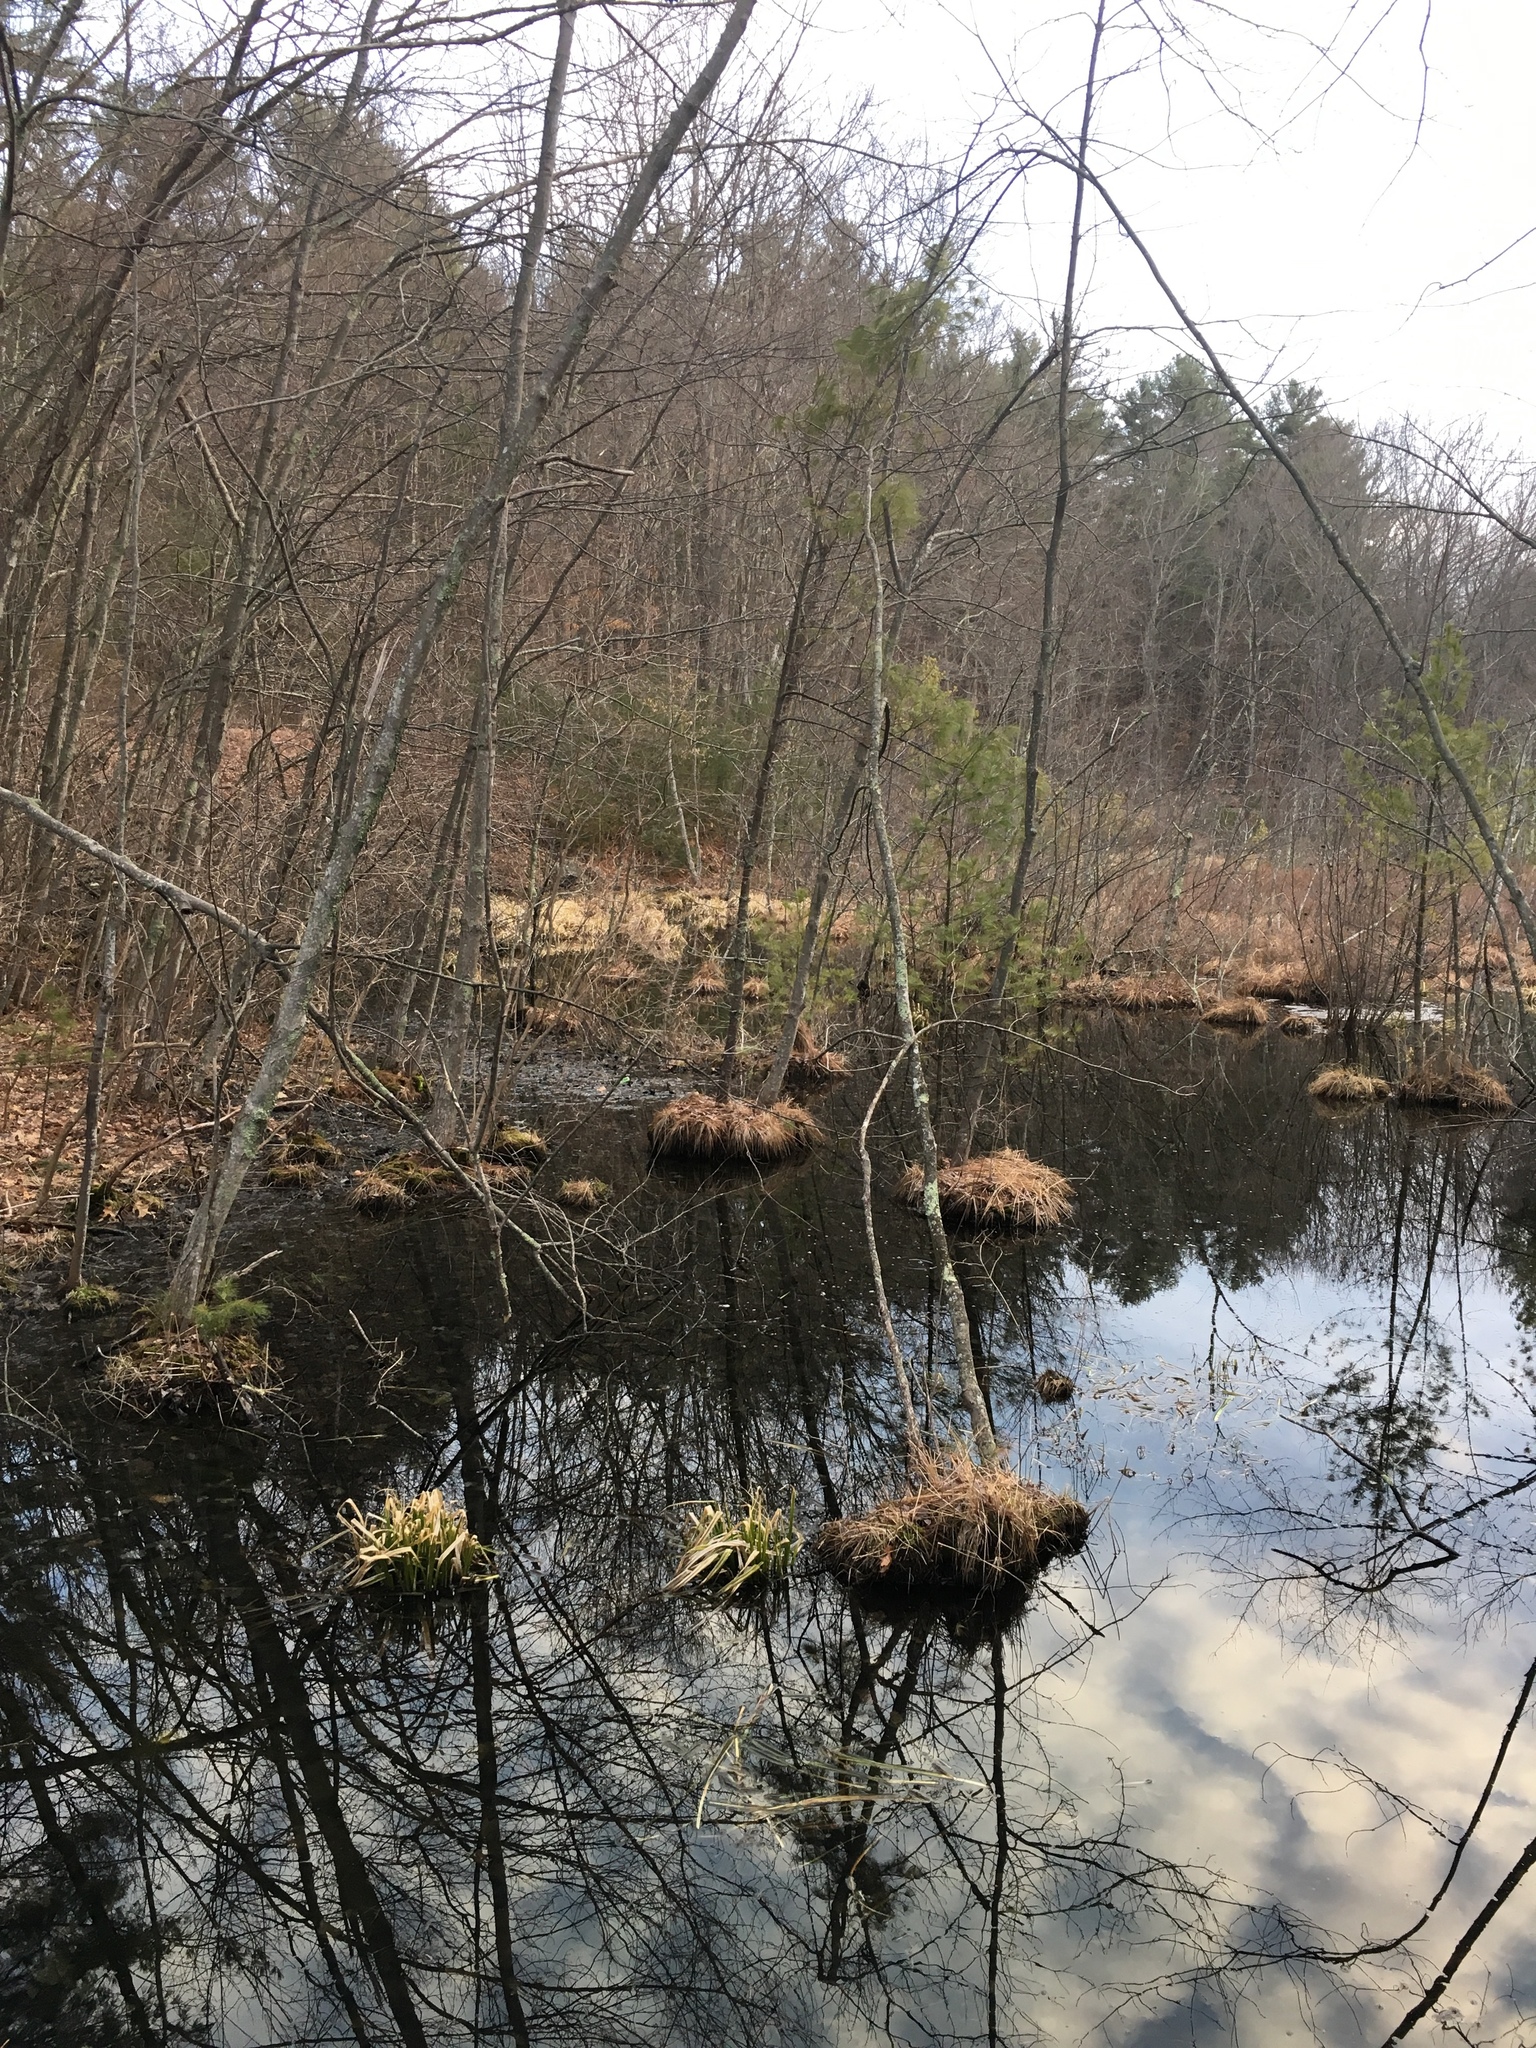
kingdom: Animalia
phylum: Chordata
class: Amphibia
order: Anura
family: Ranidae
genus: Lithobates
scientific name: Lithobates sylvaticus
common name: Wood frog
